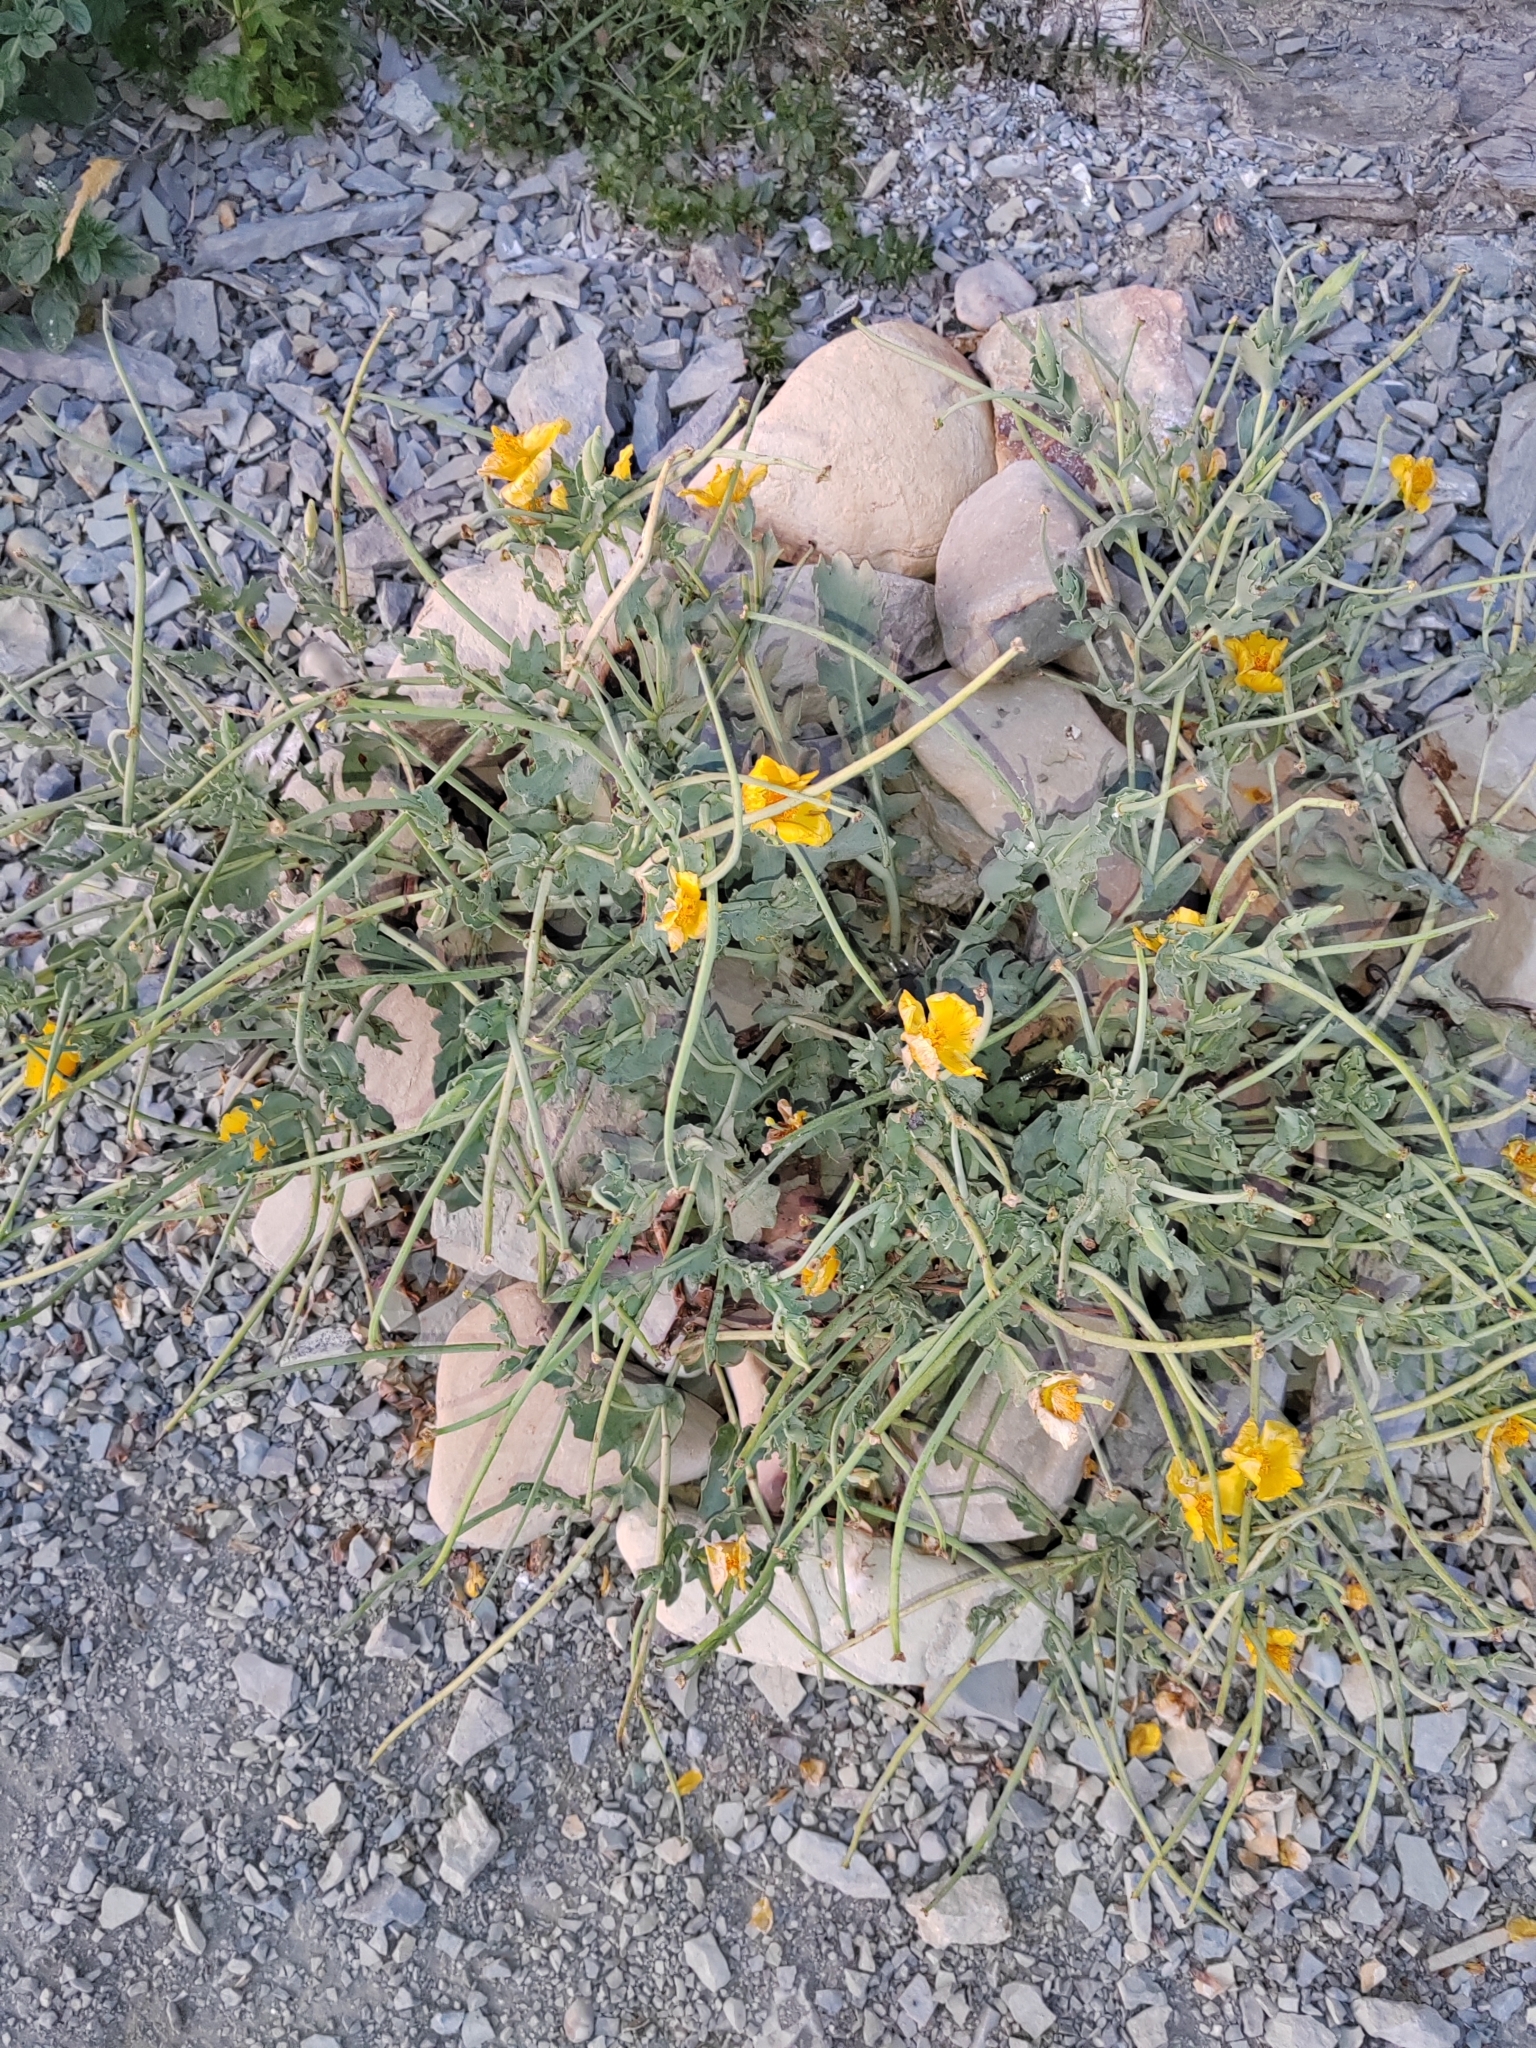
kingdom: Plantae
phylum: Tracheophyta
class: Magnoliopsida
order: Ranunculales
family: Papaveraceae
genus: Glaucium
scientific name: Glaucium flavum
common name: Yellow horned-poppy
